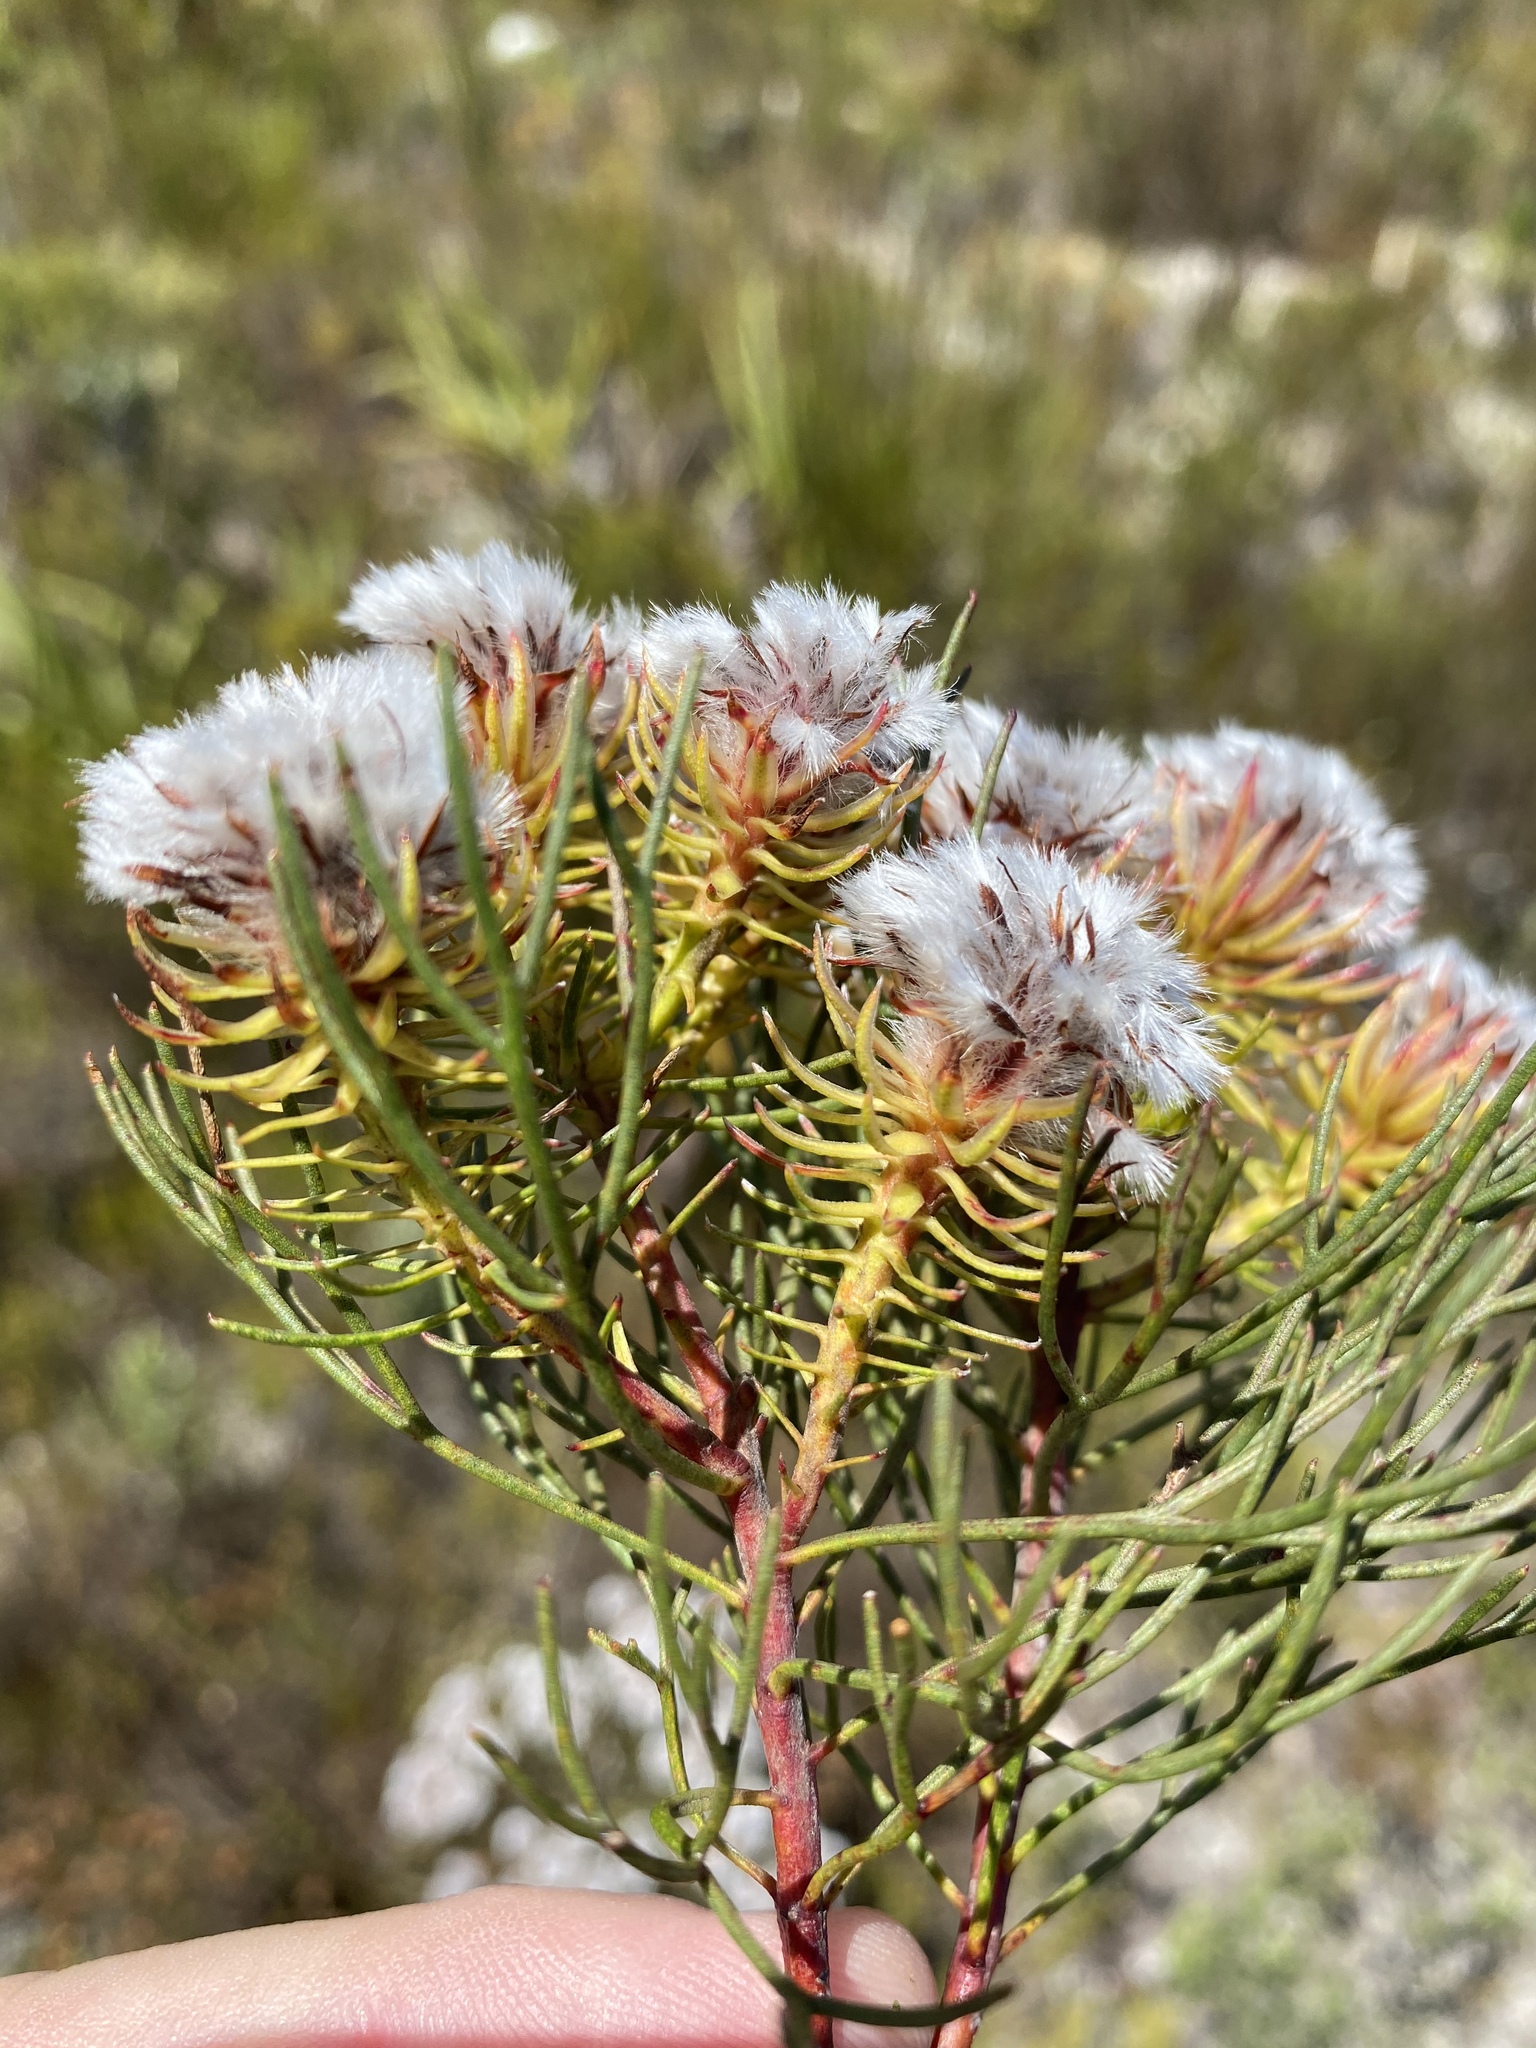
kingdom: Plantae
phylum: Tracheophyta
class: Magnoliopsida
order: Proteales
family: Proteaceae
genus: Serruria
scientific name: Serruria phylicoides
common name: Bearded spiderhead
